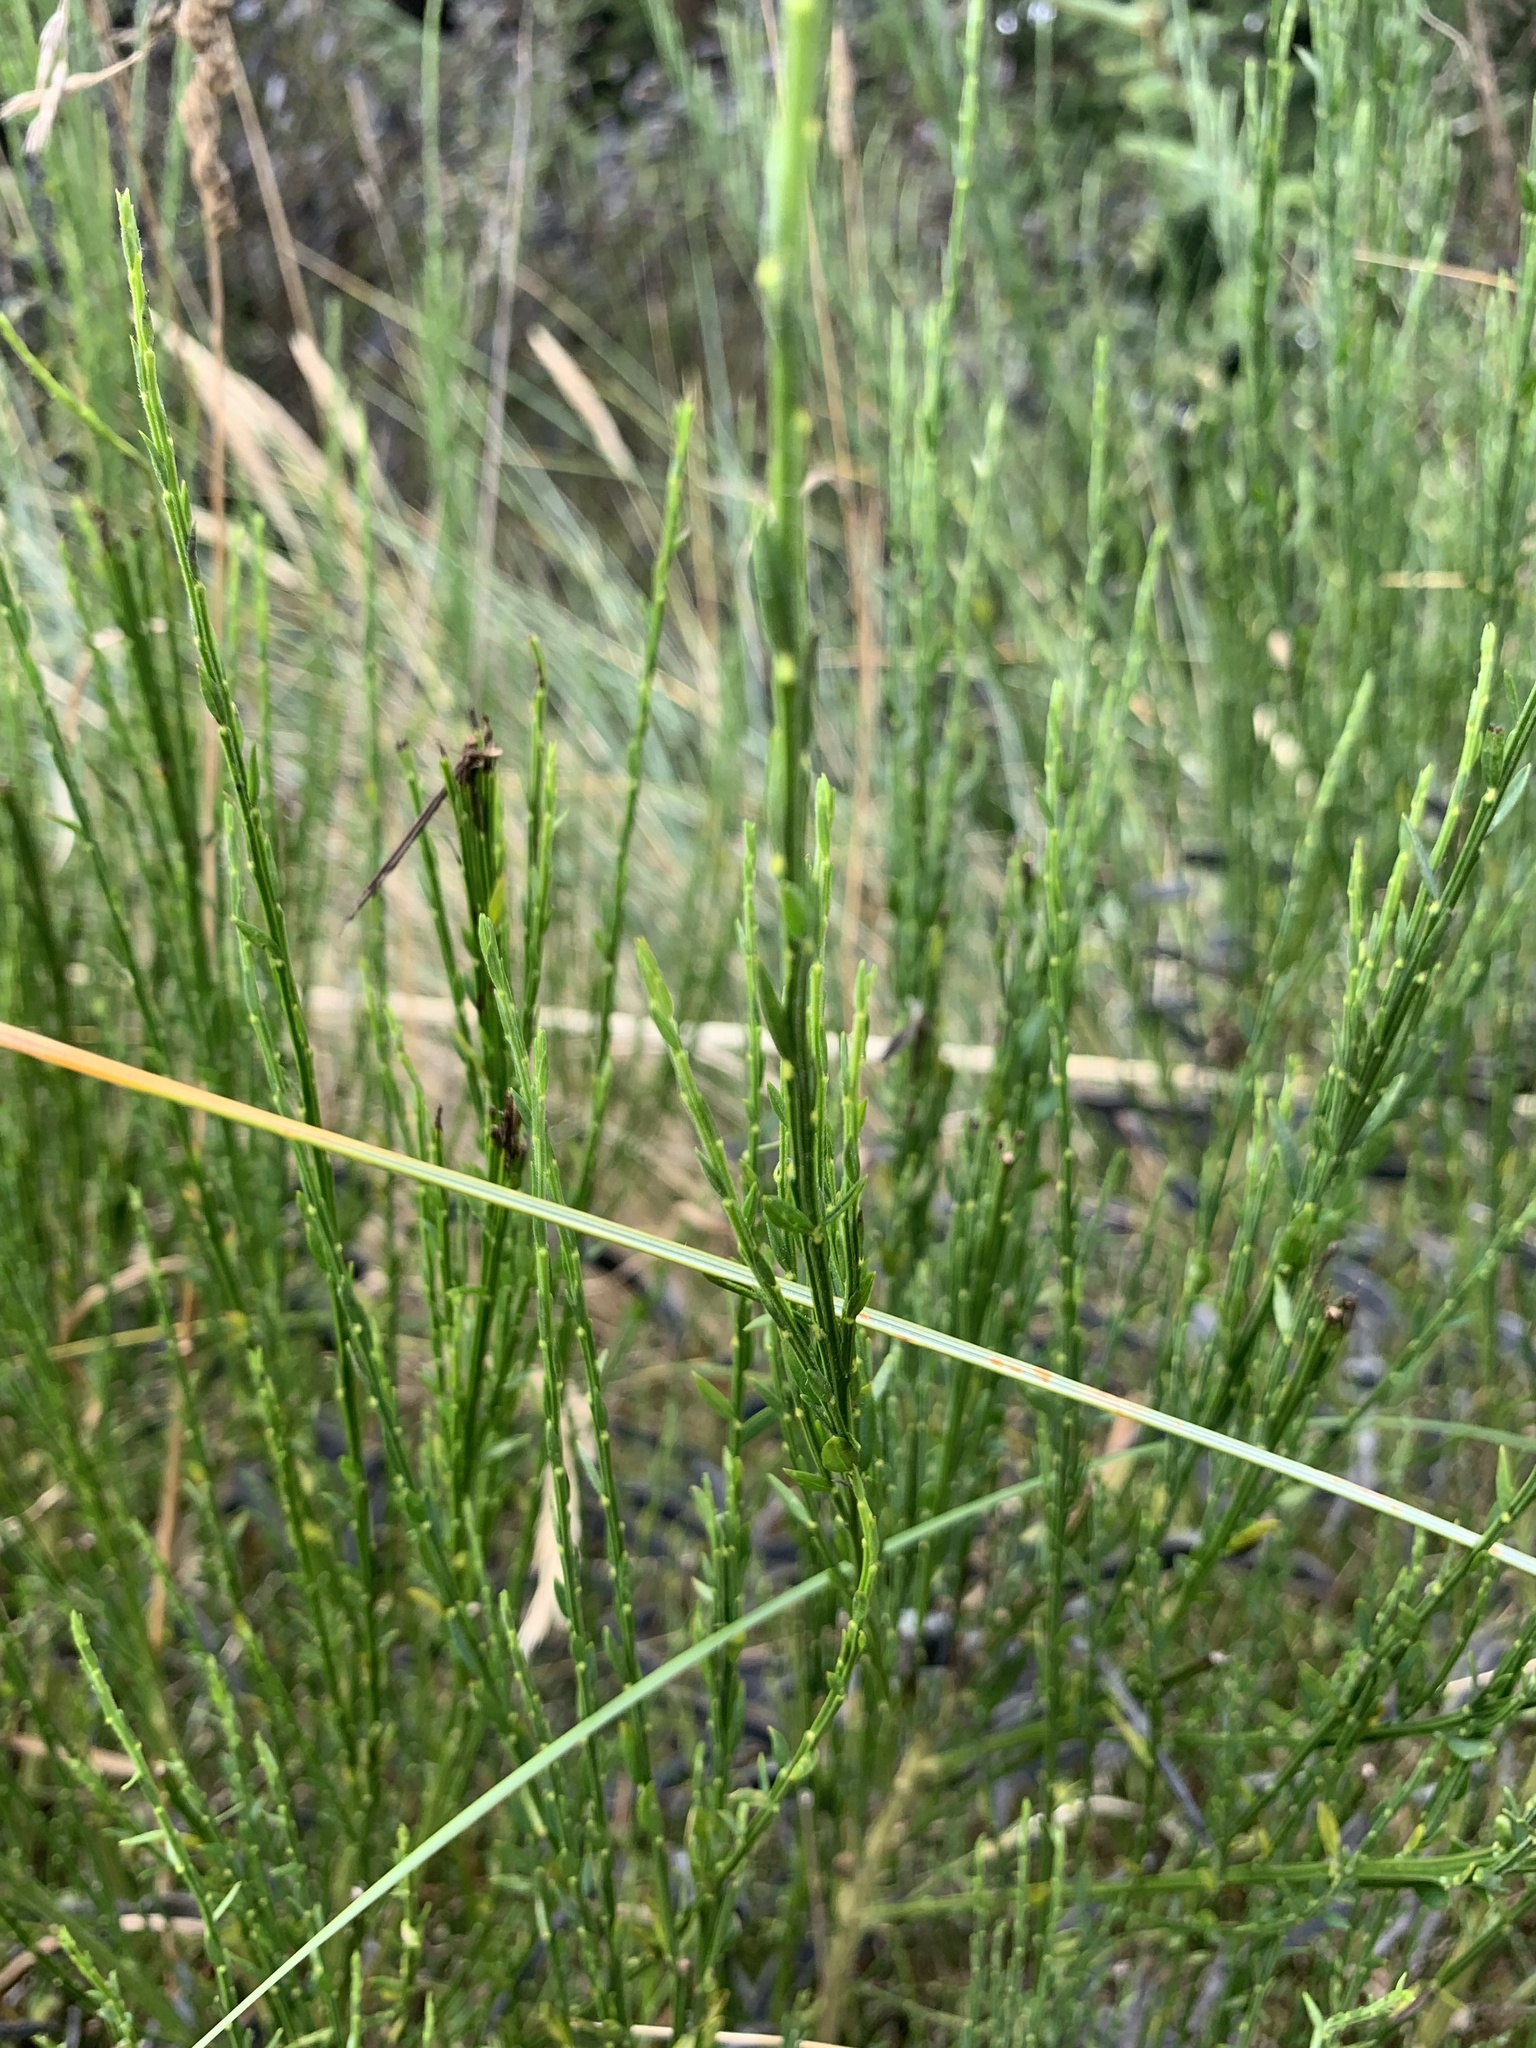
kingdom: Plantae
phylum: Tracheophyta
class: Magnoliopsida
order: Fabales
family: Fabaceae
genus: Cytisus
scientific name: Cytisus scoparius
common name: Scotch broom
